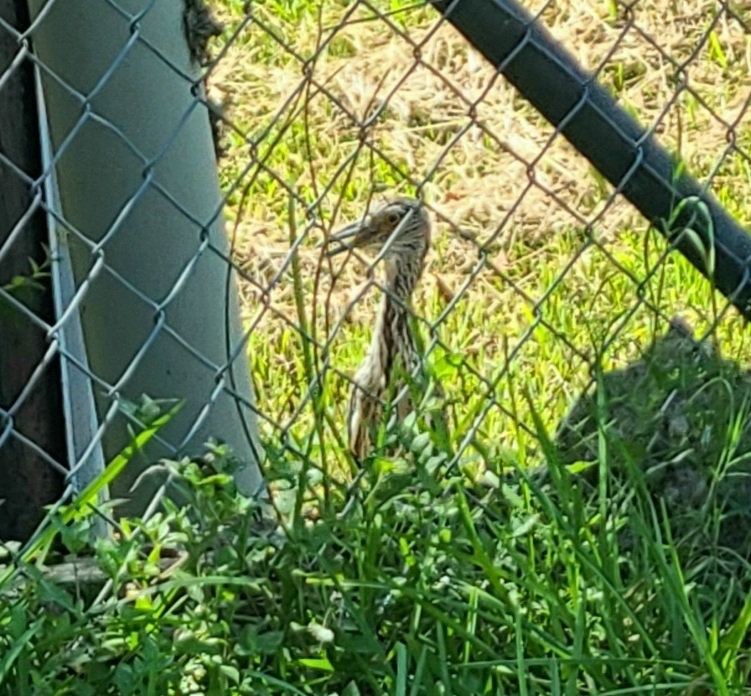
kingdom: Animalia
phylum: Chordata
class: Aves
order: Pelecaniformes
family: Ardeidae
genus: Nyctanassa
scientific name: Nyctanassa violacea
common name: Yellow-crowned night heron
